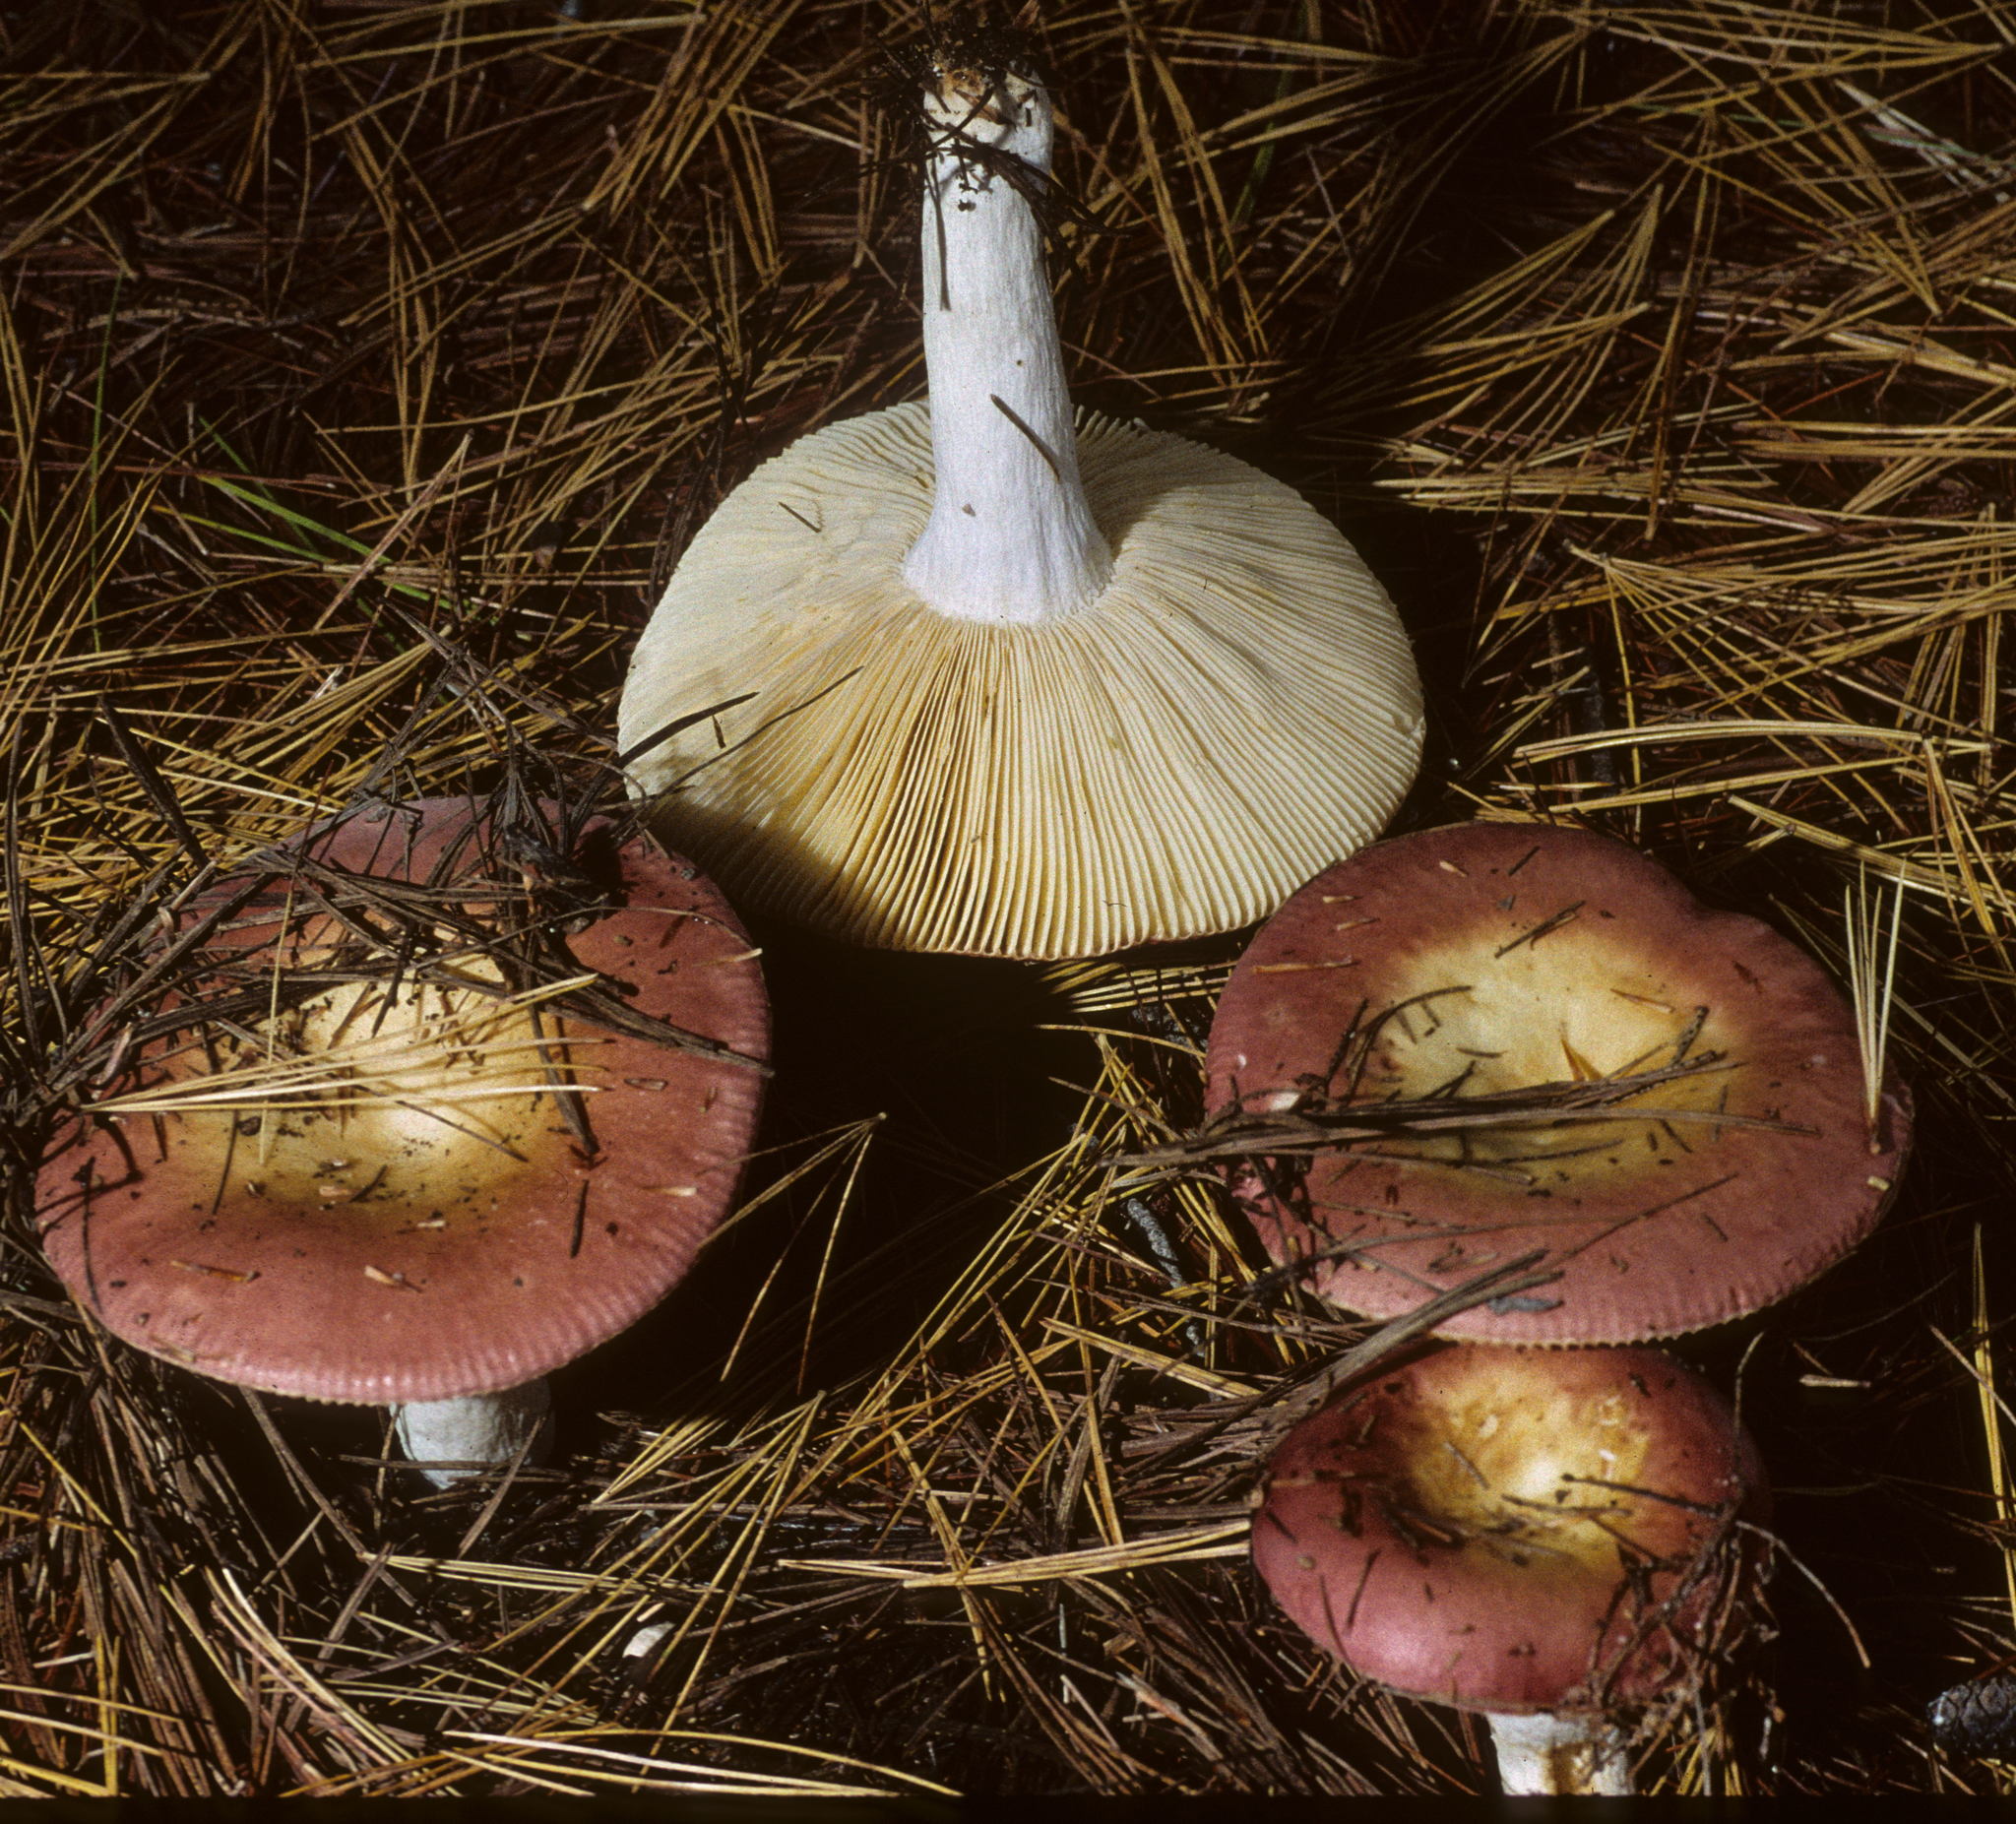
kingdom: Fungi
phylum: Basidiomycota
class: Agaricomycetes
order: Russulales
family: Russulaceae
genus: Russula
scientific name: Russula
